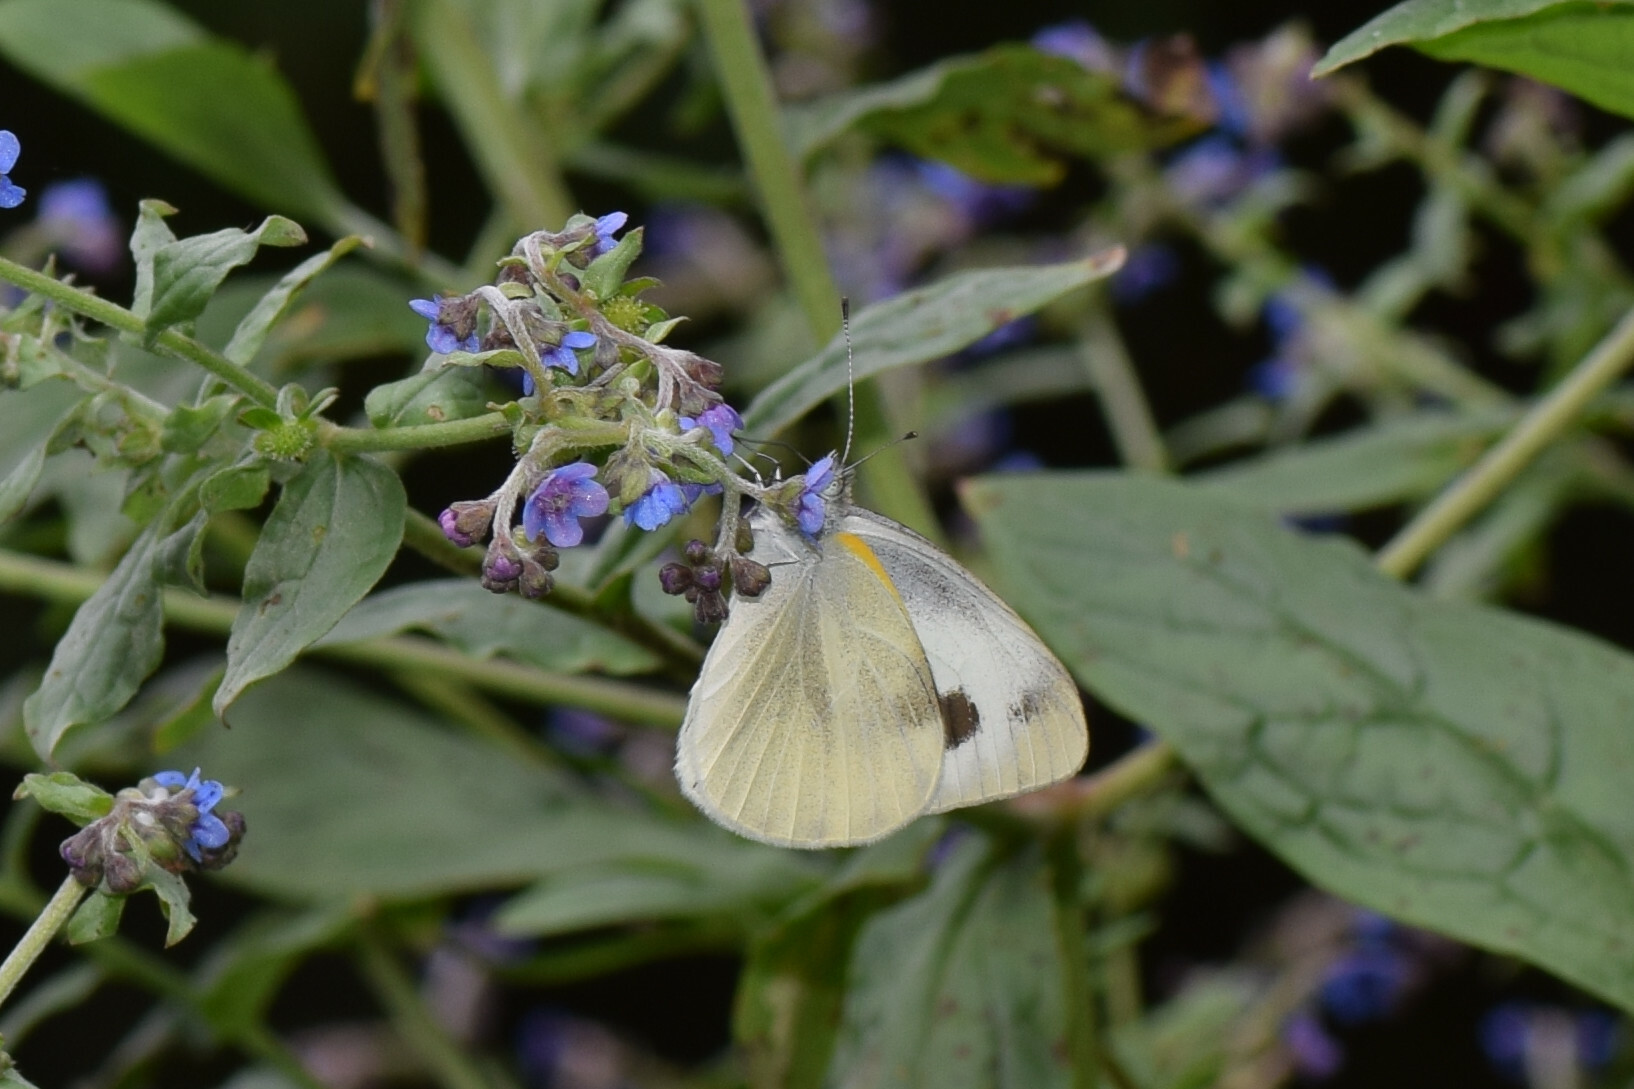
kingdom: Animalia
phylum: Arthropoda
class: Insecta
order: Lepidoptera
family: Pieridae
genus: Pieris
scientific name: Pieris canidia
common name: Indian cabbage white
